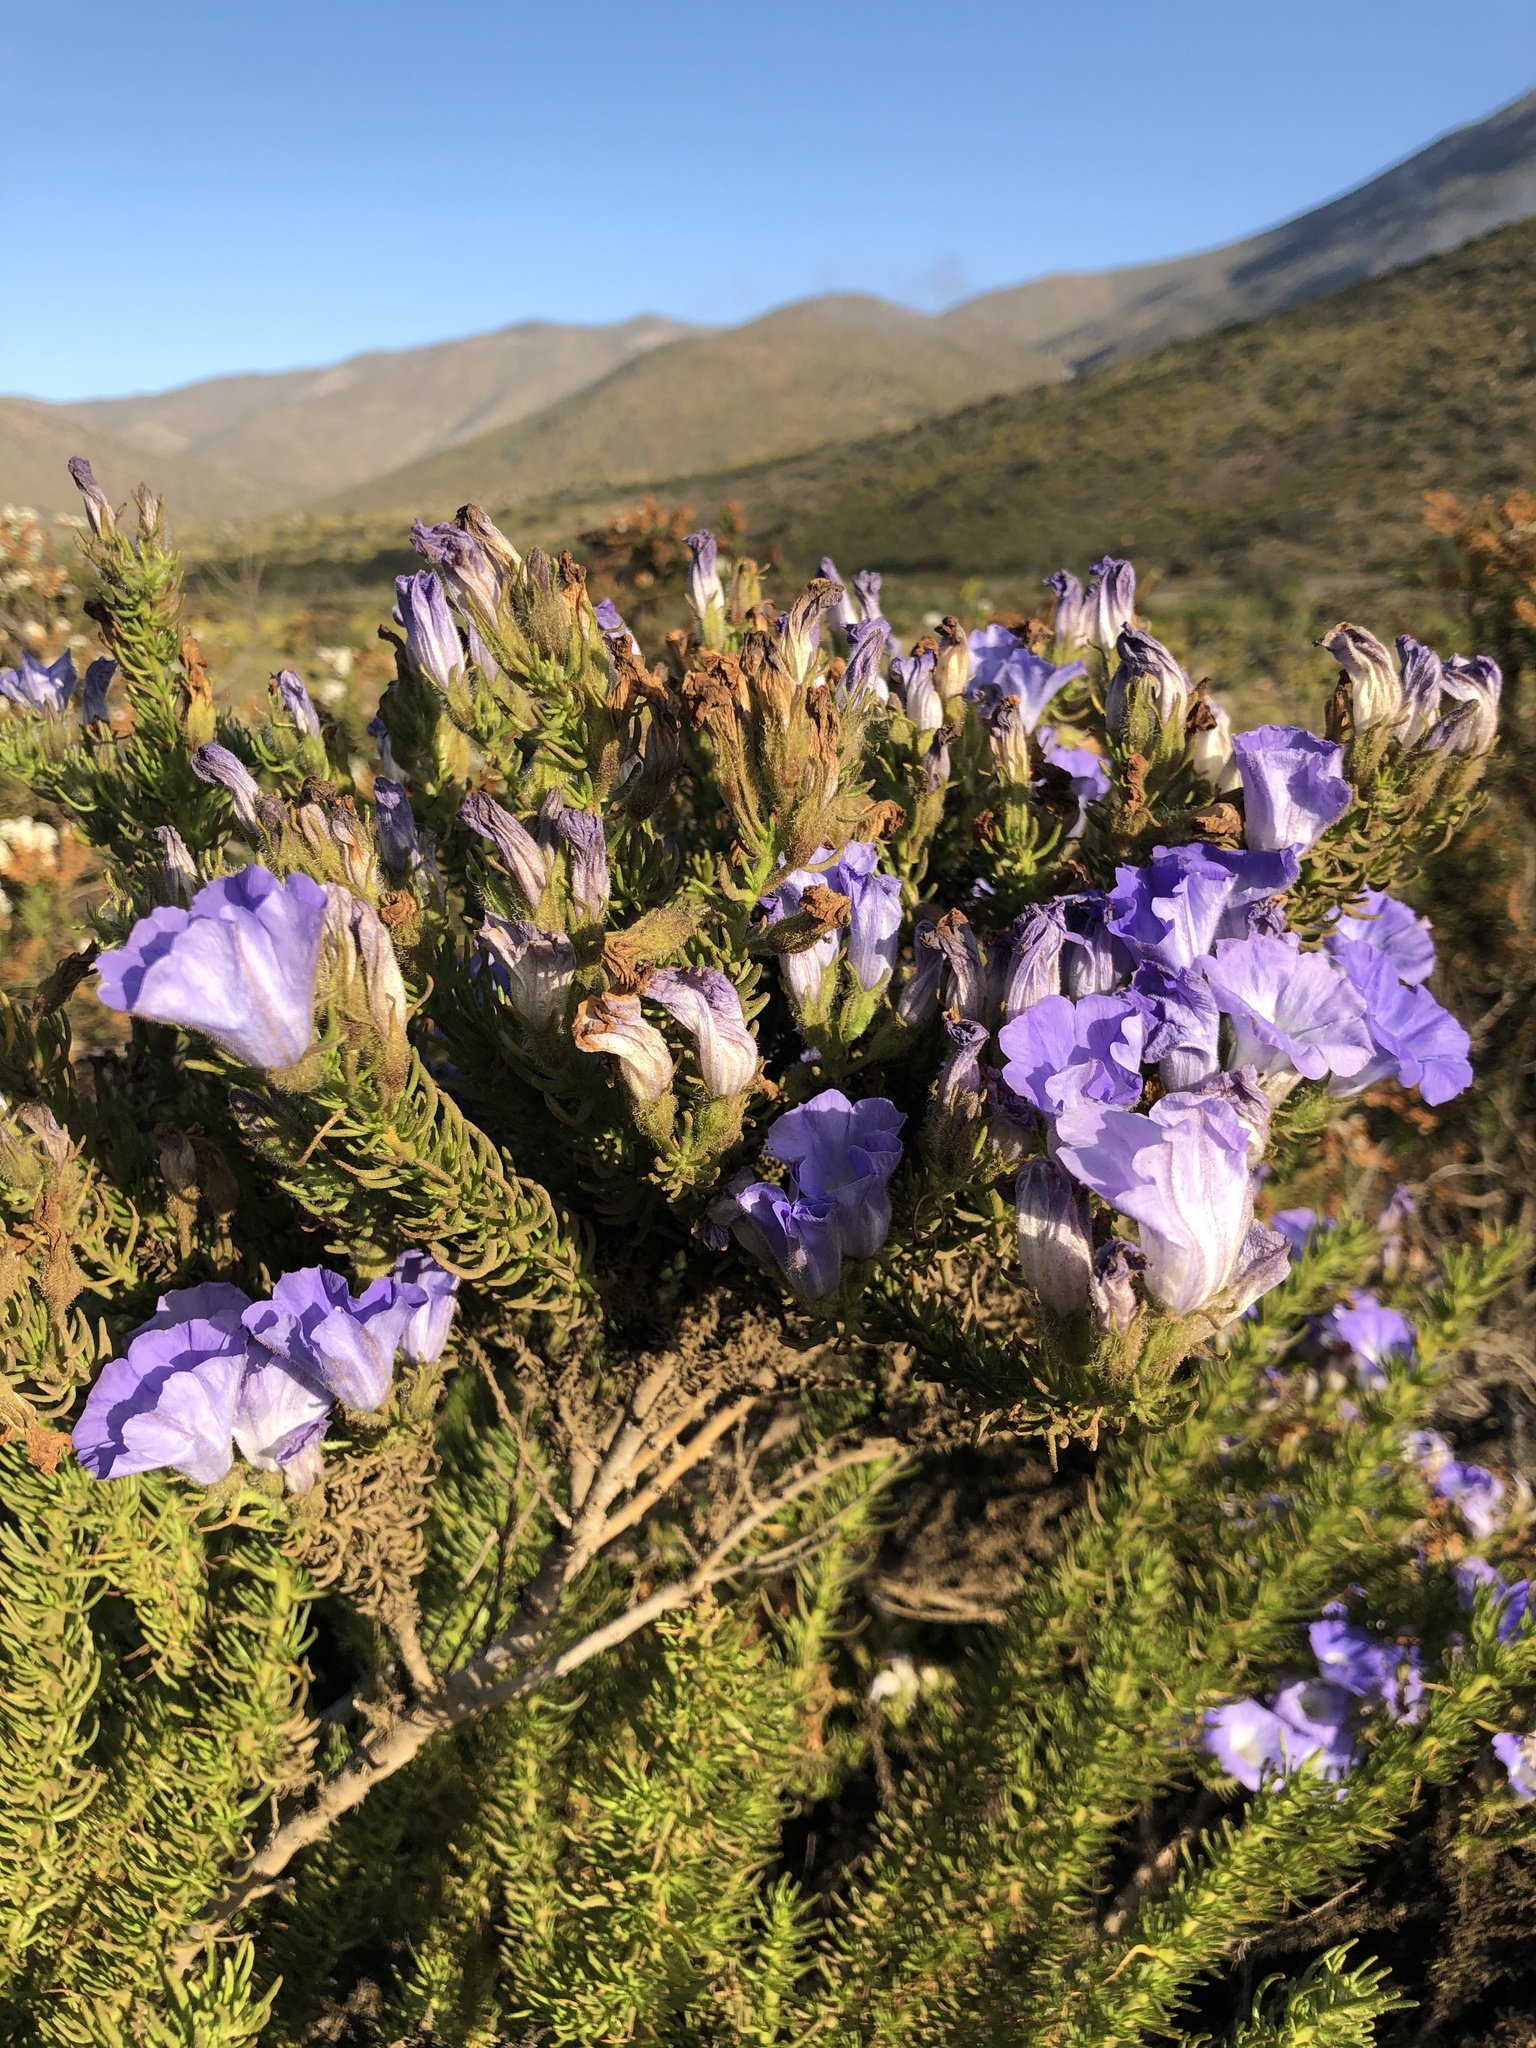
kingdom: Plantae
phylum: Tracheophyta
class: Magnoliopsida
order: Solanales
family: Solanaceae
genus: Nolana
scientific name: Nolana carnosa
